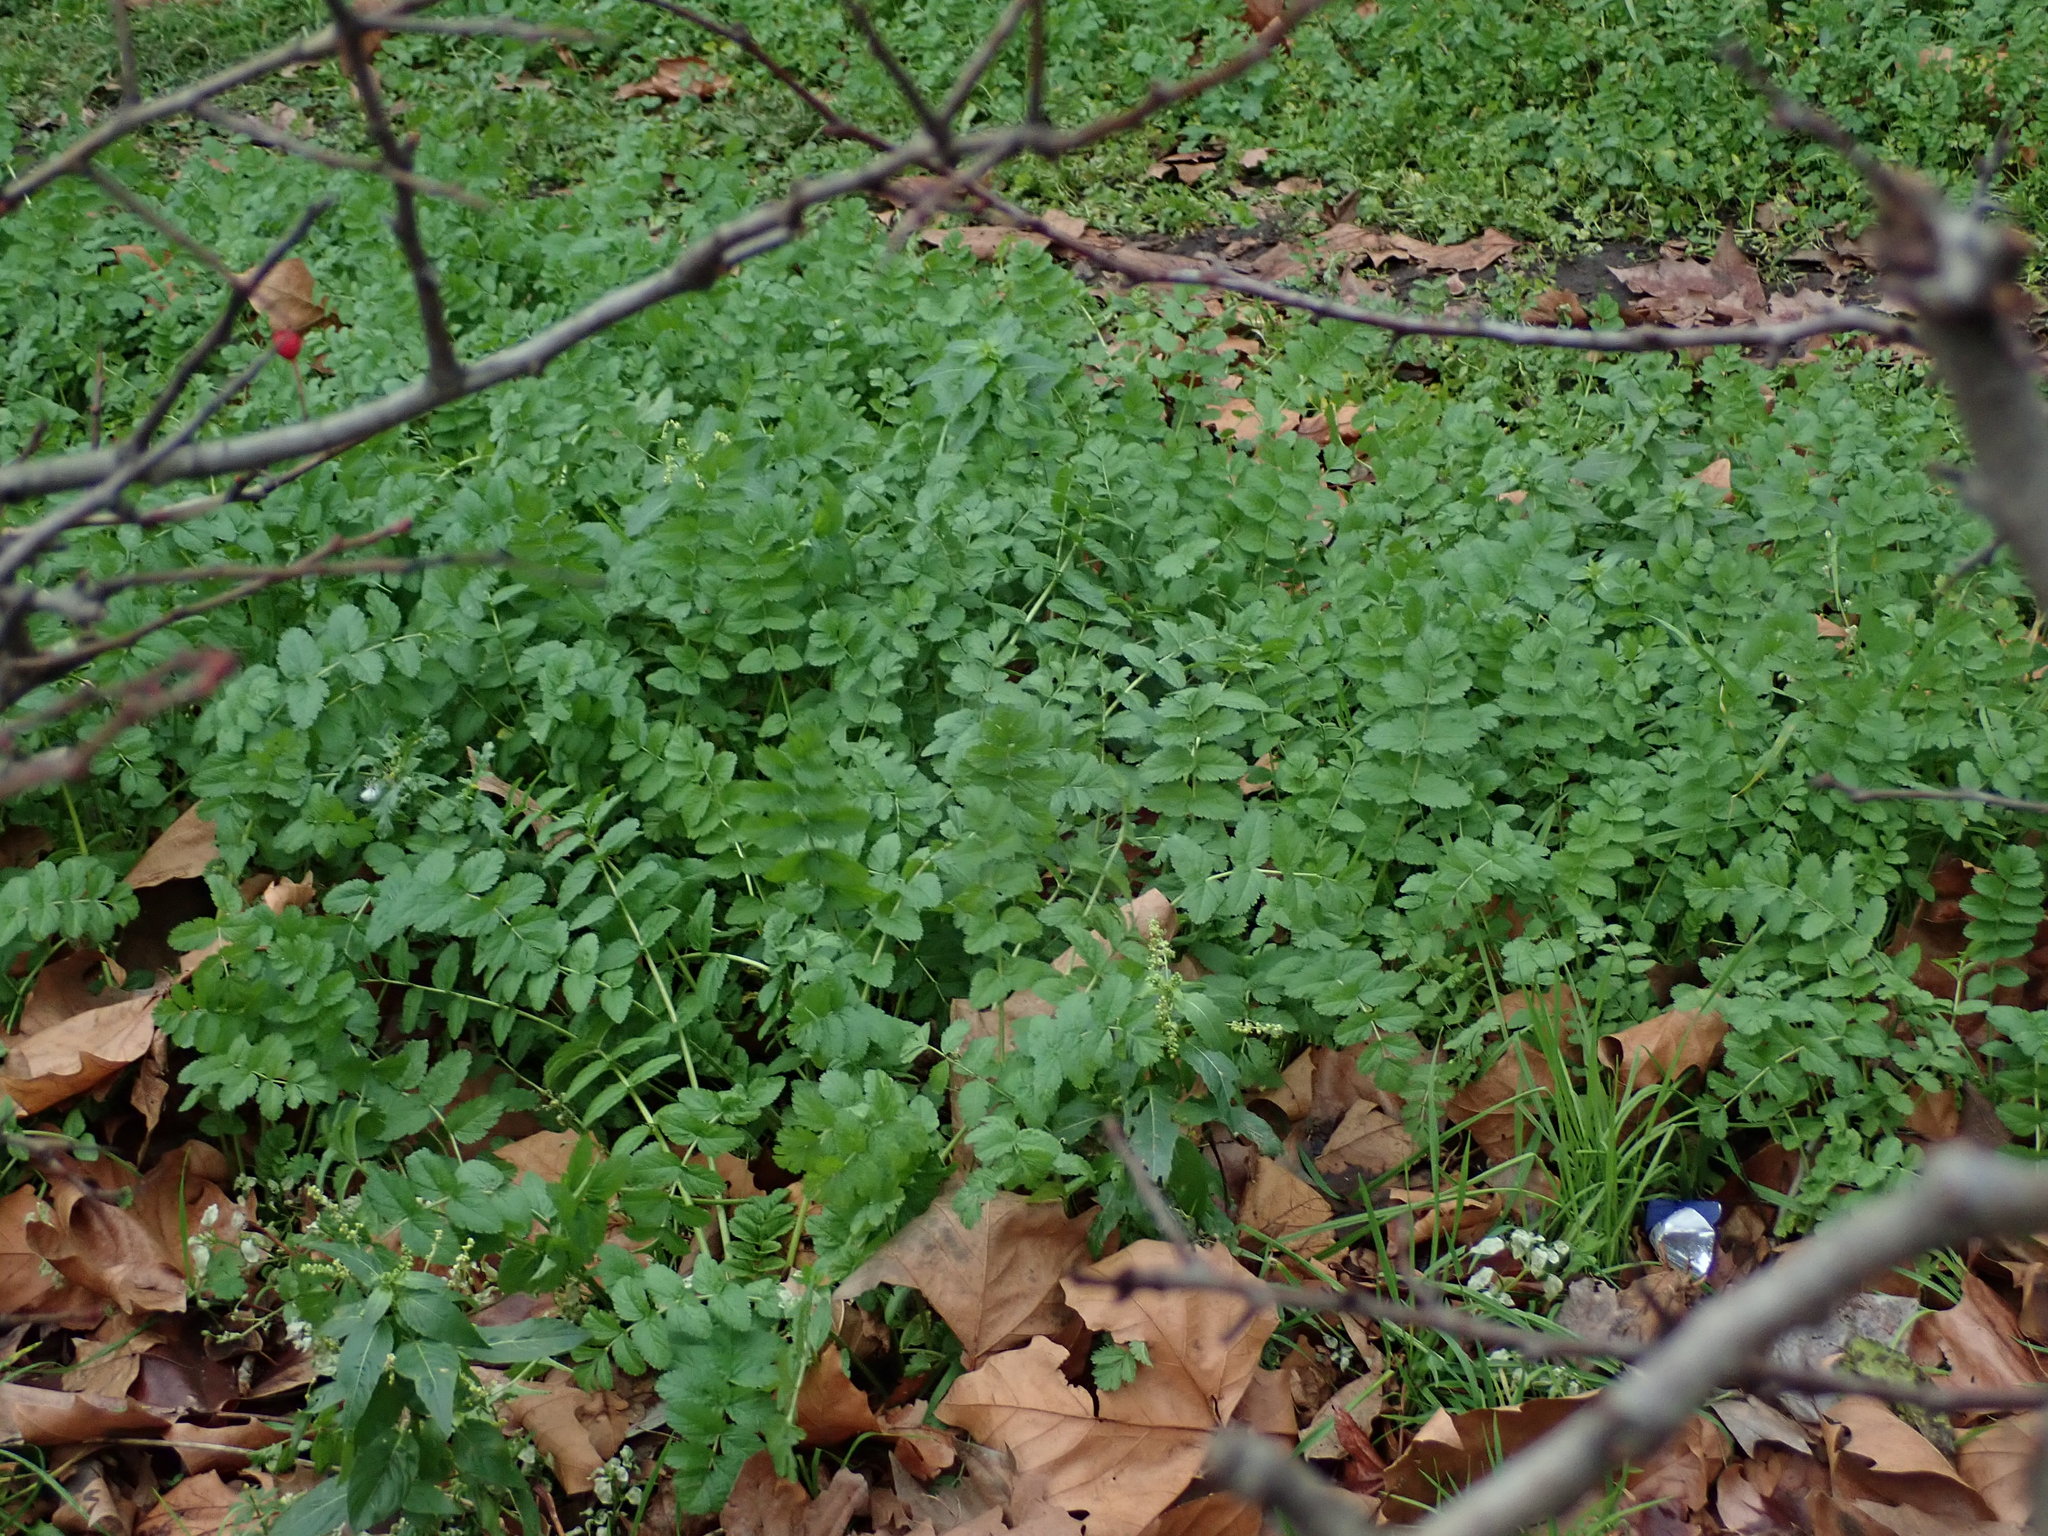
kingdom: Plantae
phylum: Tracheophyta
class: Magnoliopsida
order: Geraniales
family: Geraniaceae
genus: Erodium
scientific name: Erodium moschatum
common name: Musk stork's-bill
